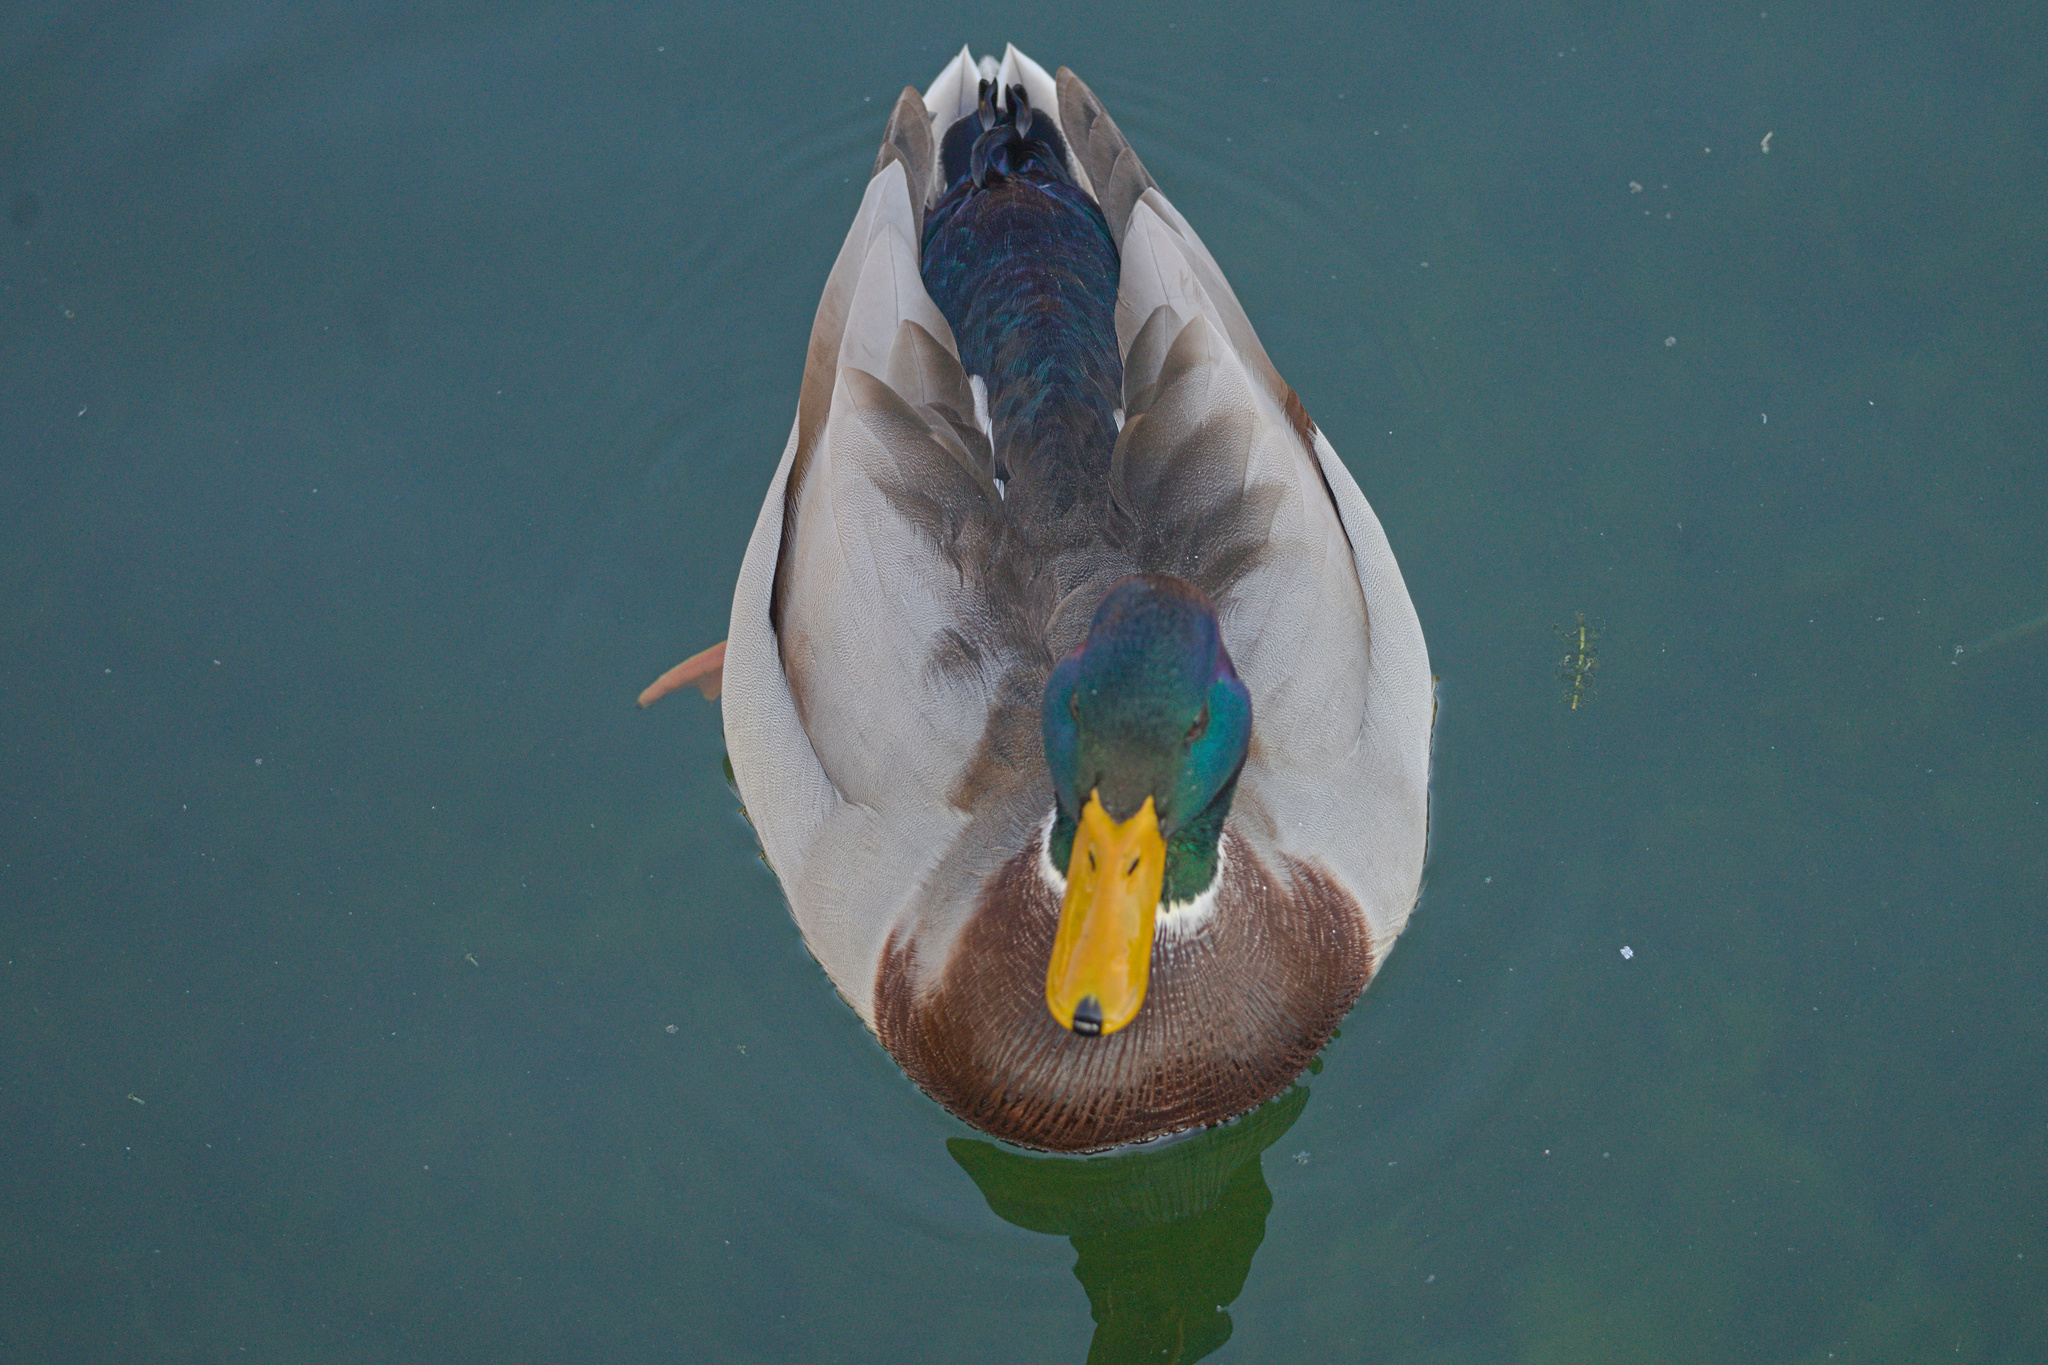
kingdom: Animalia
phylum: Chordata
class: Aves
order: Anseriformes
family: Anatidae
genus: Anas
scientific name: Anas platyrhynchos
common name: Mallard
